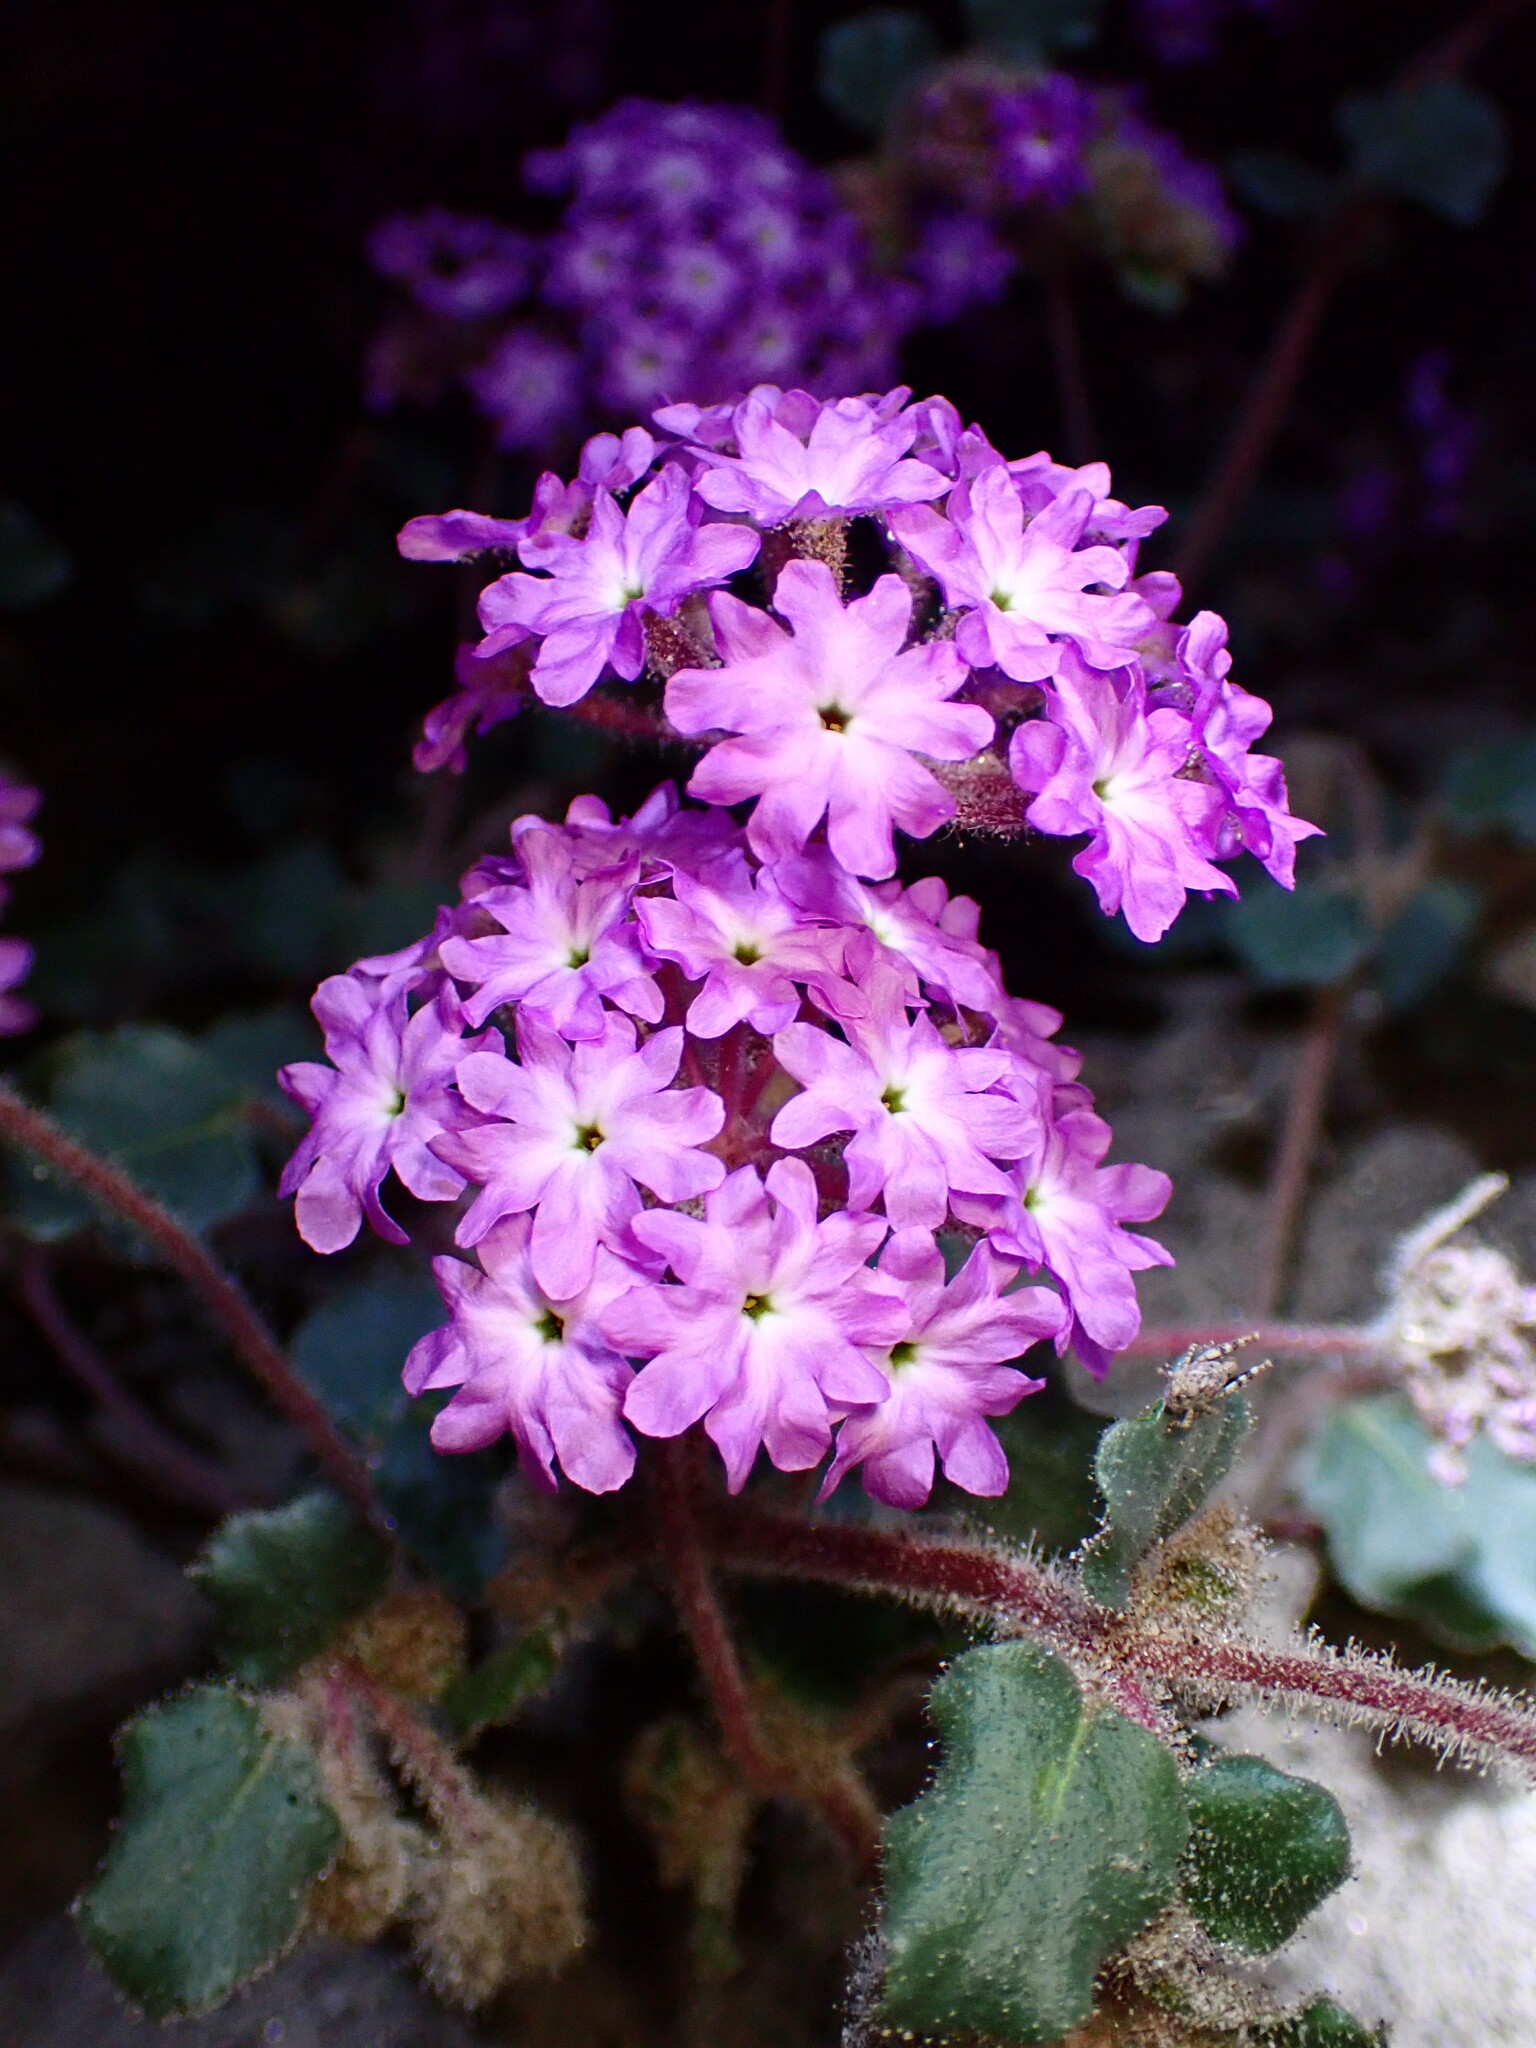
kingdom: Plantae
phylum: Tracheophyta
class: Magnoliopsida
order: Caryophyllales
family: Nyctaginaceae
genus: Abronia
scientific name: Abronia villosa
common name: Desert sand-verbena
